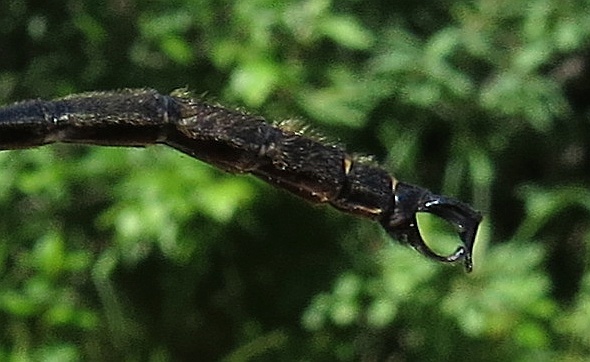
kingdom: Animalia
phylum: Arthropoda
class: Insecta
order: Odonata
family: Corduliidae
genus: Somatochlora
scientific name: Somatochlora tenebrosa
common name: Clamp-tipped emerald
